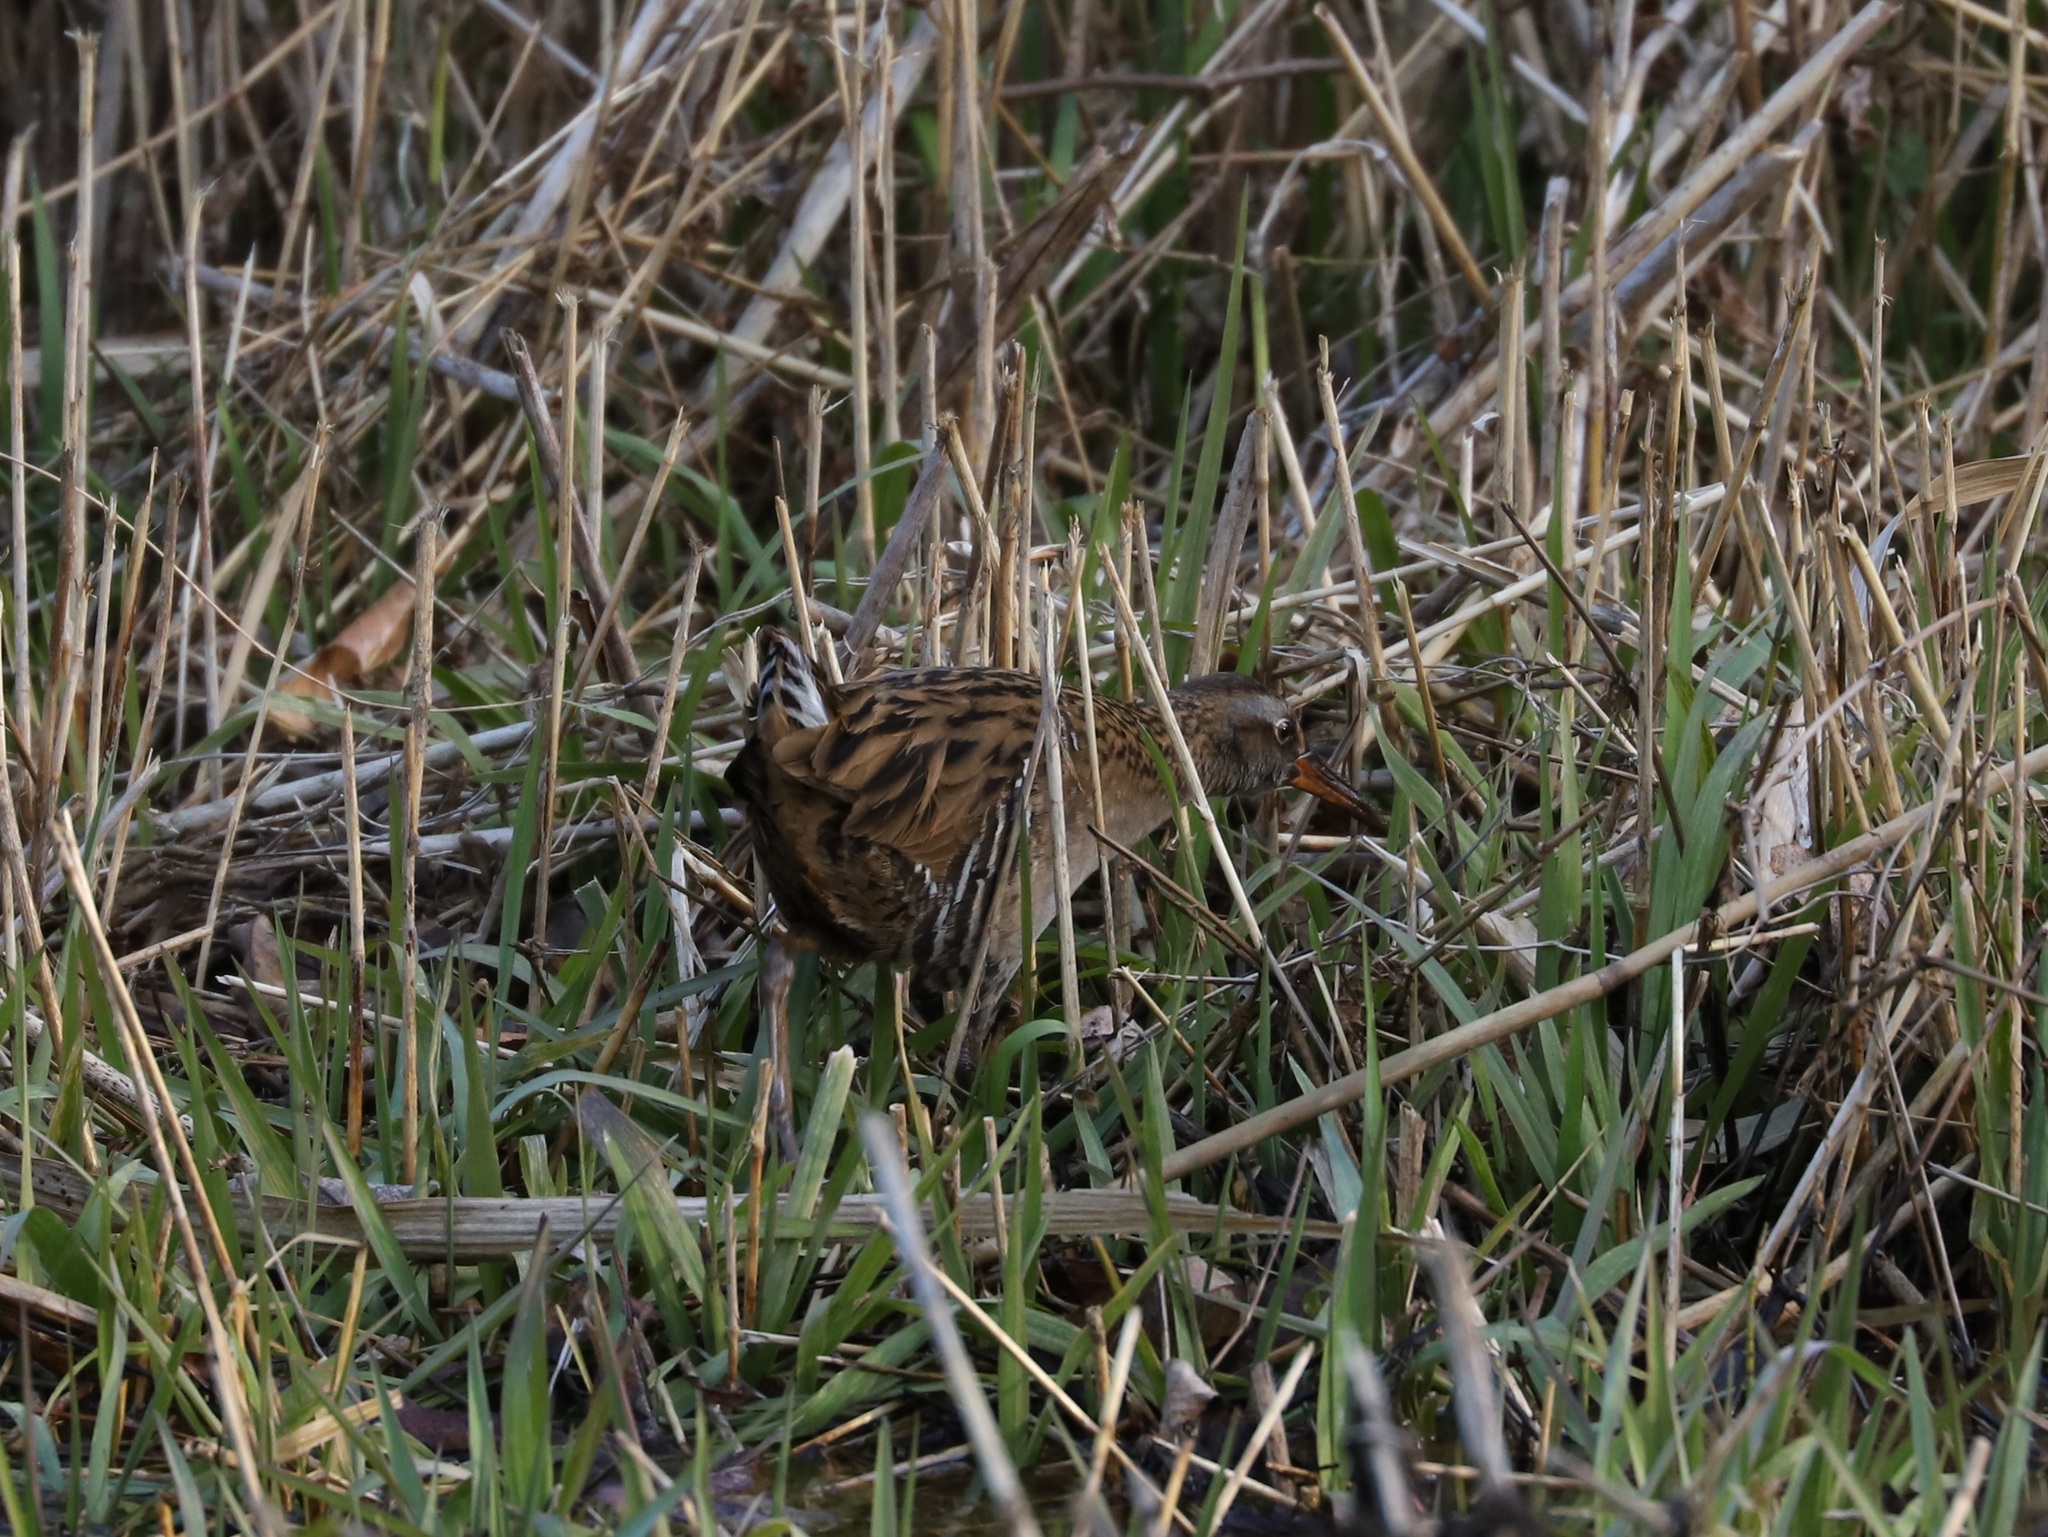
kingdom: Animalia
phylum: Chordata
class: Aves
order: Gruiformes
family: Rallidae
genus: Rallus
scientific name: Rallus indicus
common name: Brown-cheeked rail
